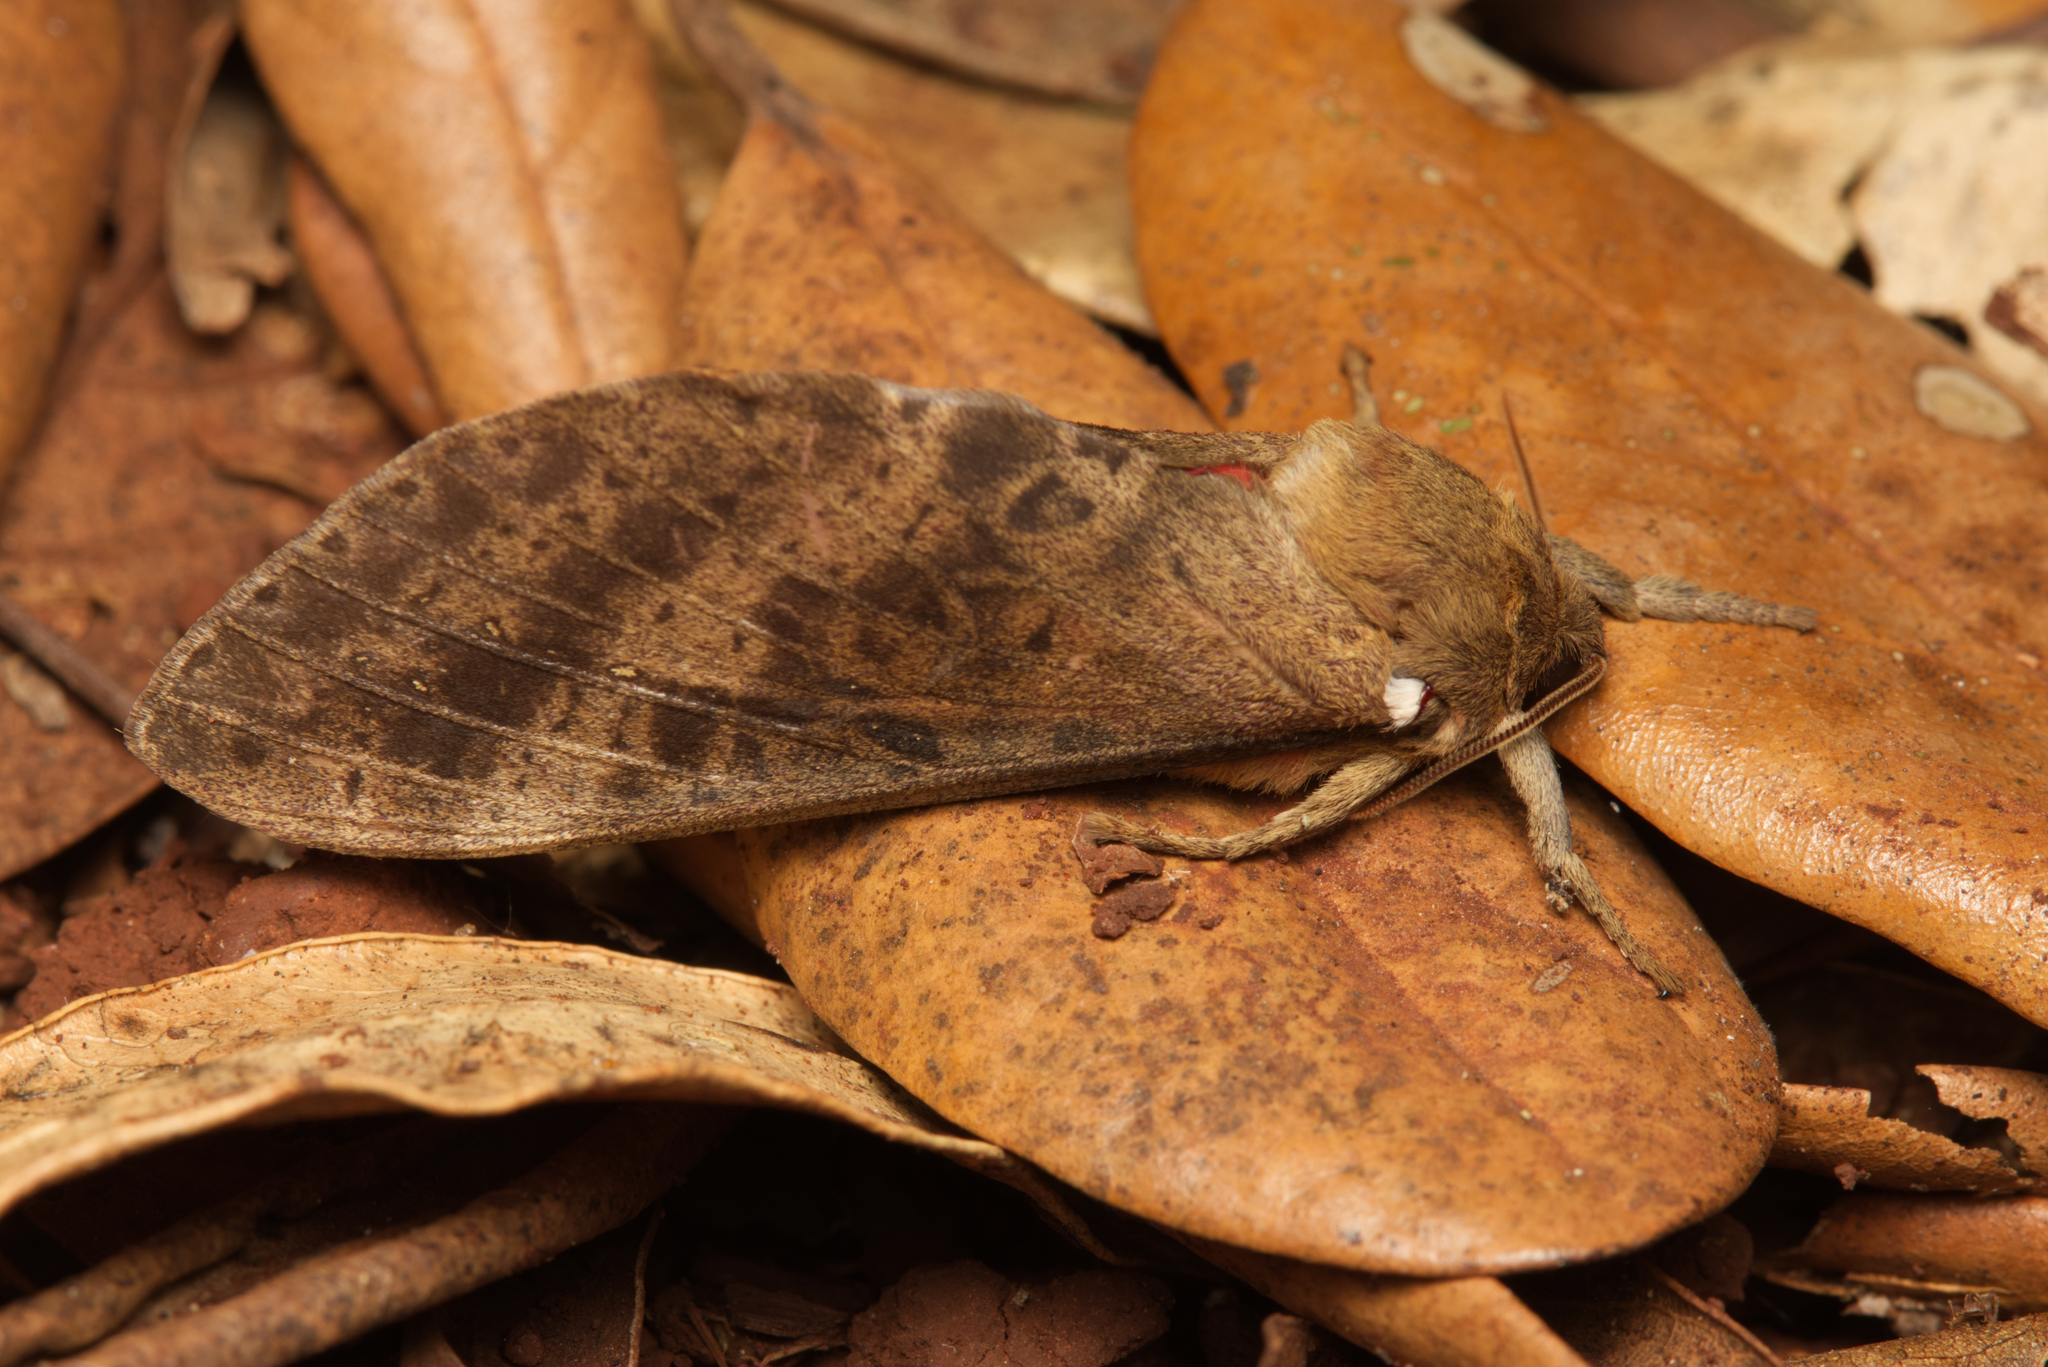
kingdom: Animalia
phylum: Arthropoda
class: Insecta
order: Lepidoptera
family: Hepialidae
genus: Oxycanus
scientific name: Oxycanus beltista
